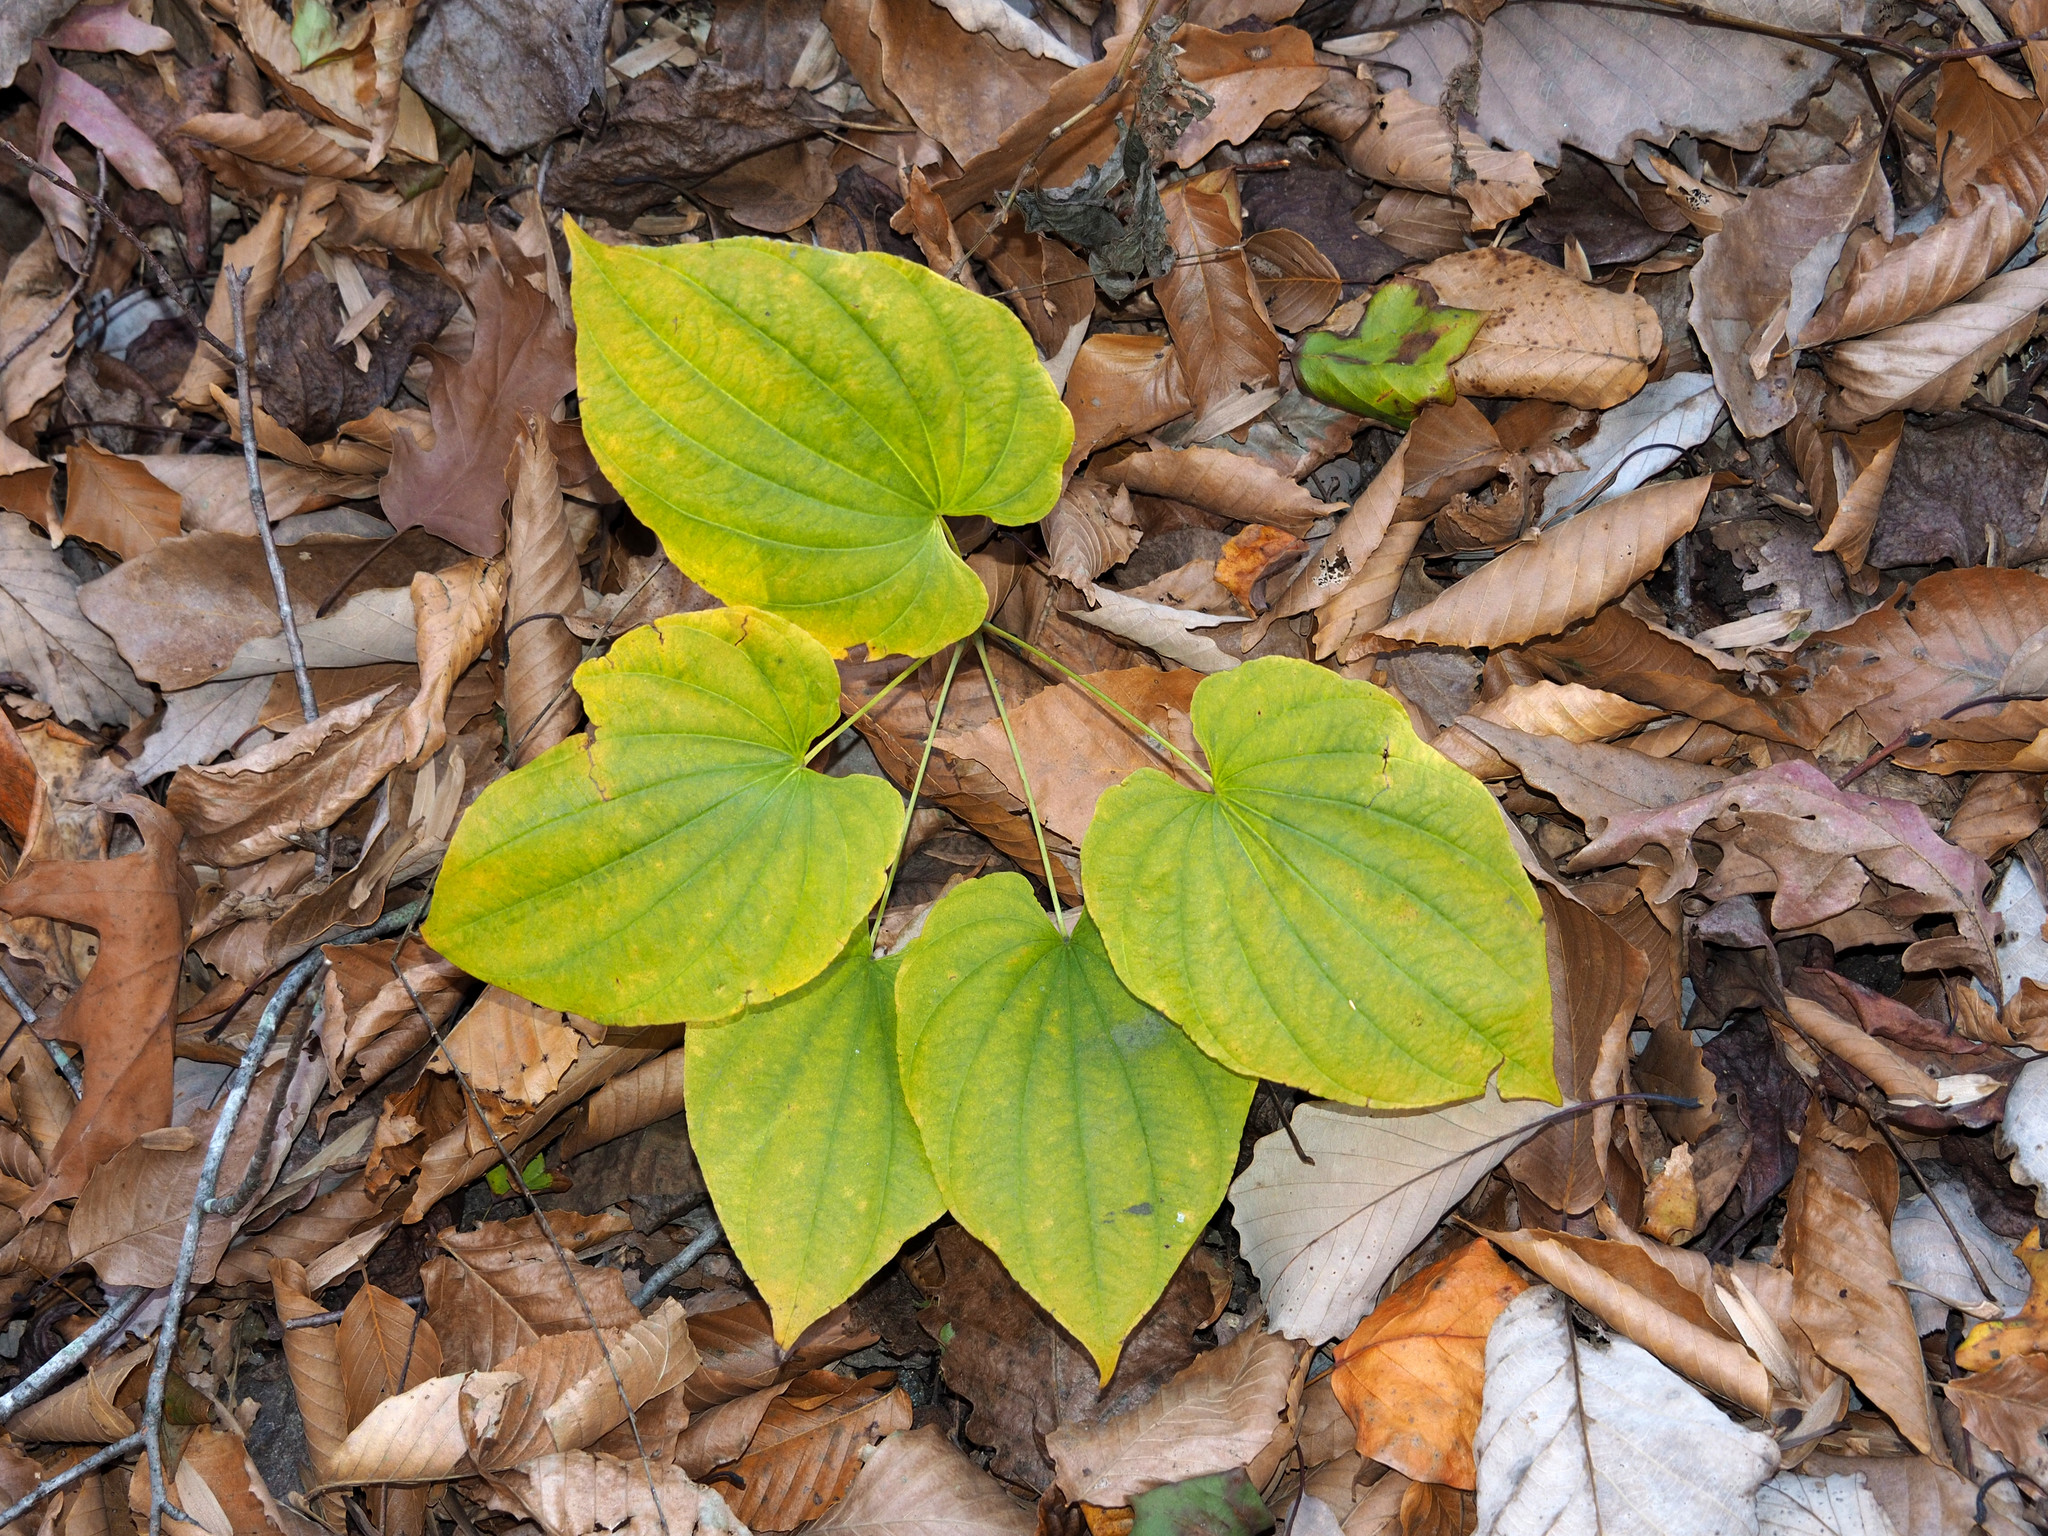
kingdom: Plantae
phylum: Tracheophyta
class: Liliopsida
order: Dioscoreales
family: Dioscoreaceae
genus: Dioscorea
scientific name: Dioscorea villosa
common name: Wild yam
